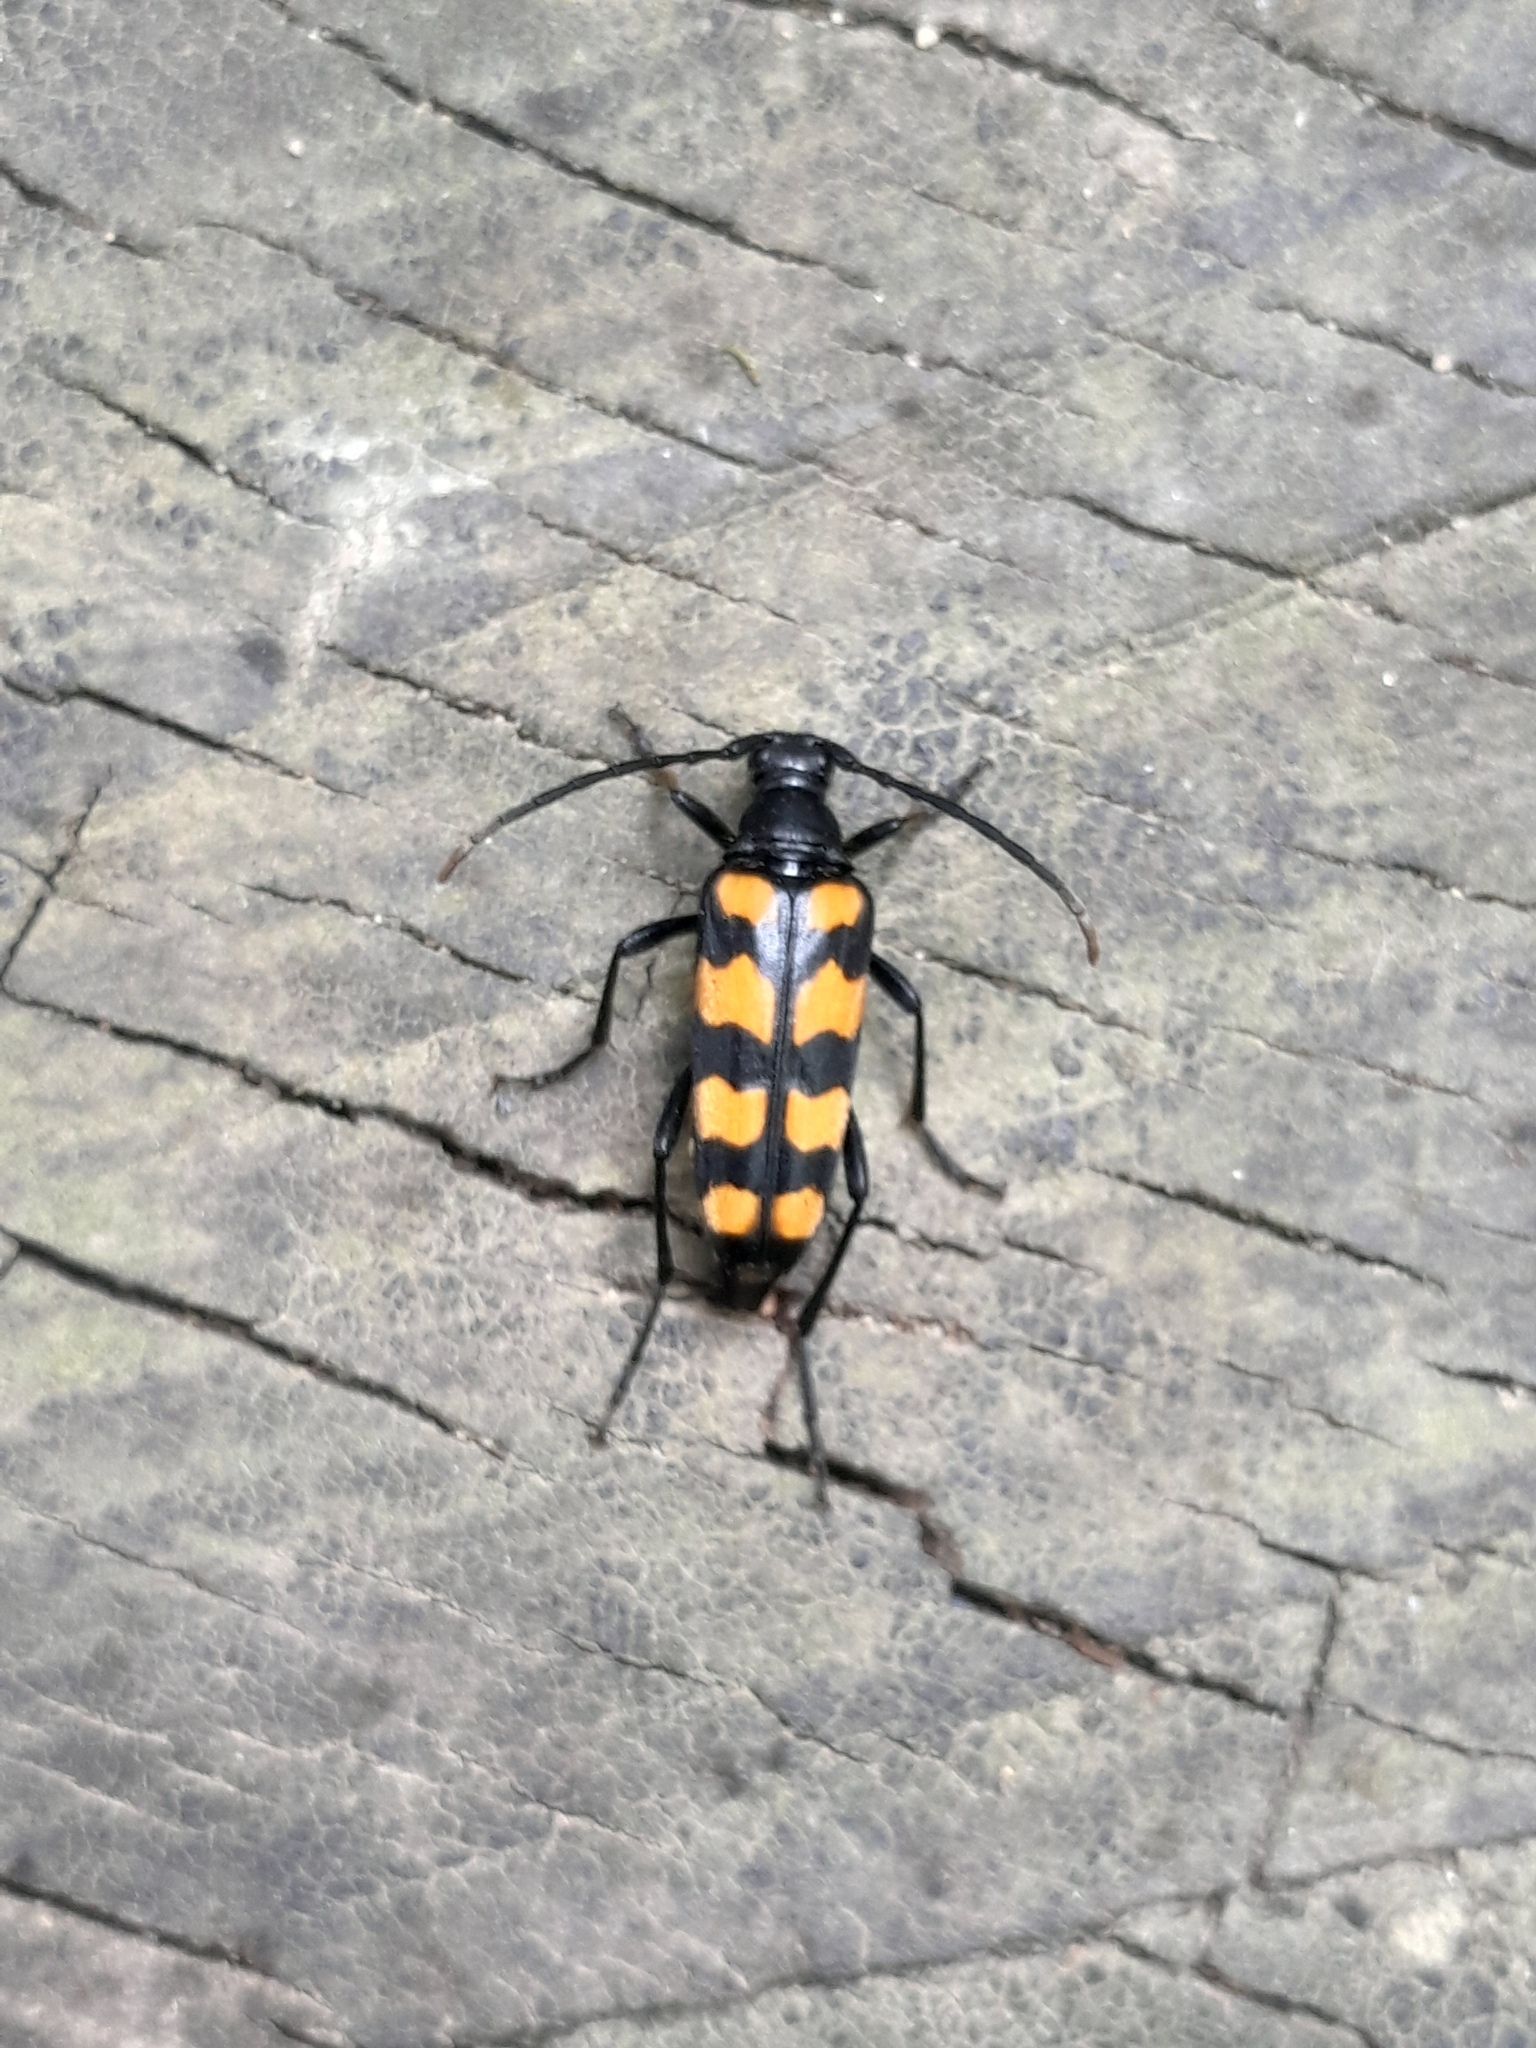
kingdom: Animalia
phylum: Arthropoda
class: Insecta
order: Coleoptera
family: Cerambycidae
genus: Leptura
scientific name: Leptura quadrifasciata
